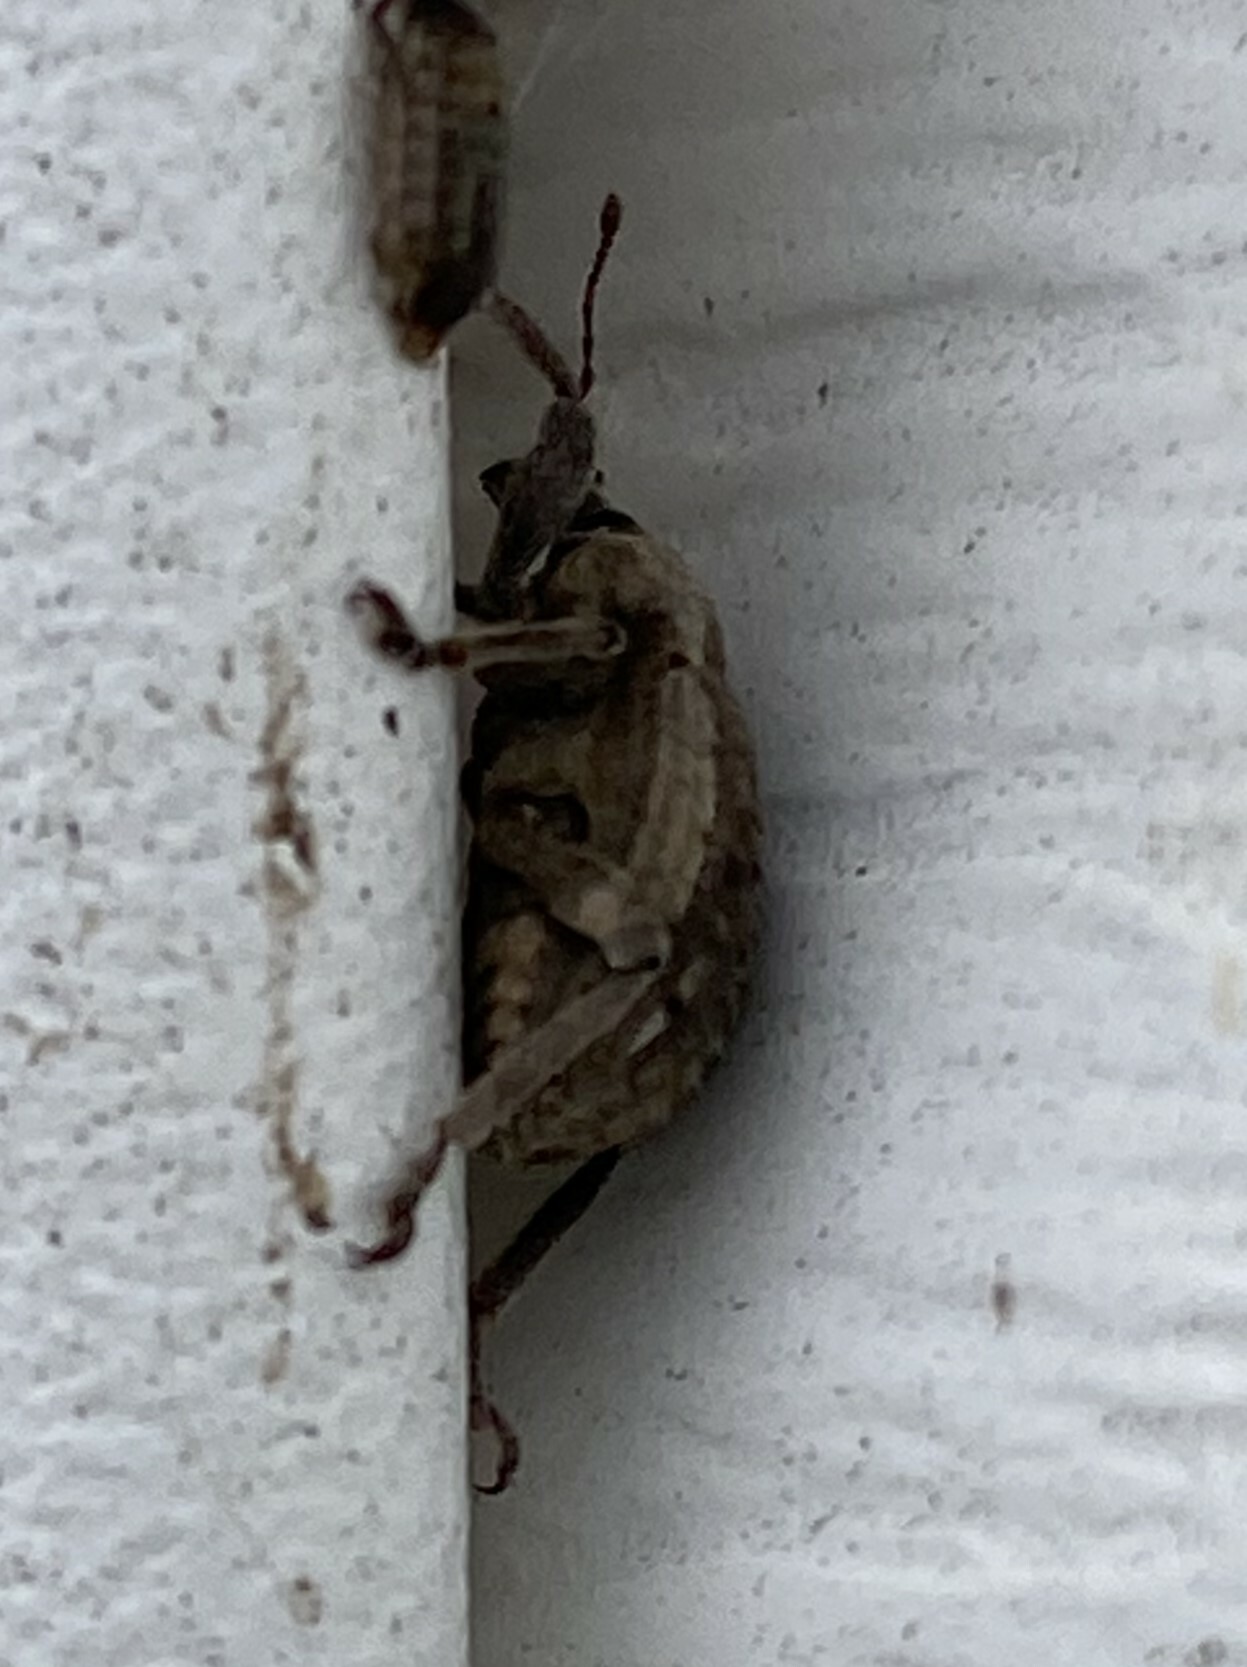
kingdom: Animalia
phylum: Arthropoda
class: Insecta
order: Coleoptera
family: Curculionidae
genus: Brachypera
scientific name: Brachypera zoilus
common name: Clover leaf weevil
